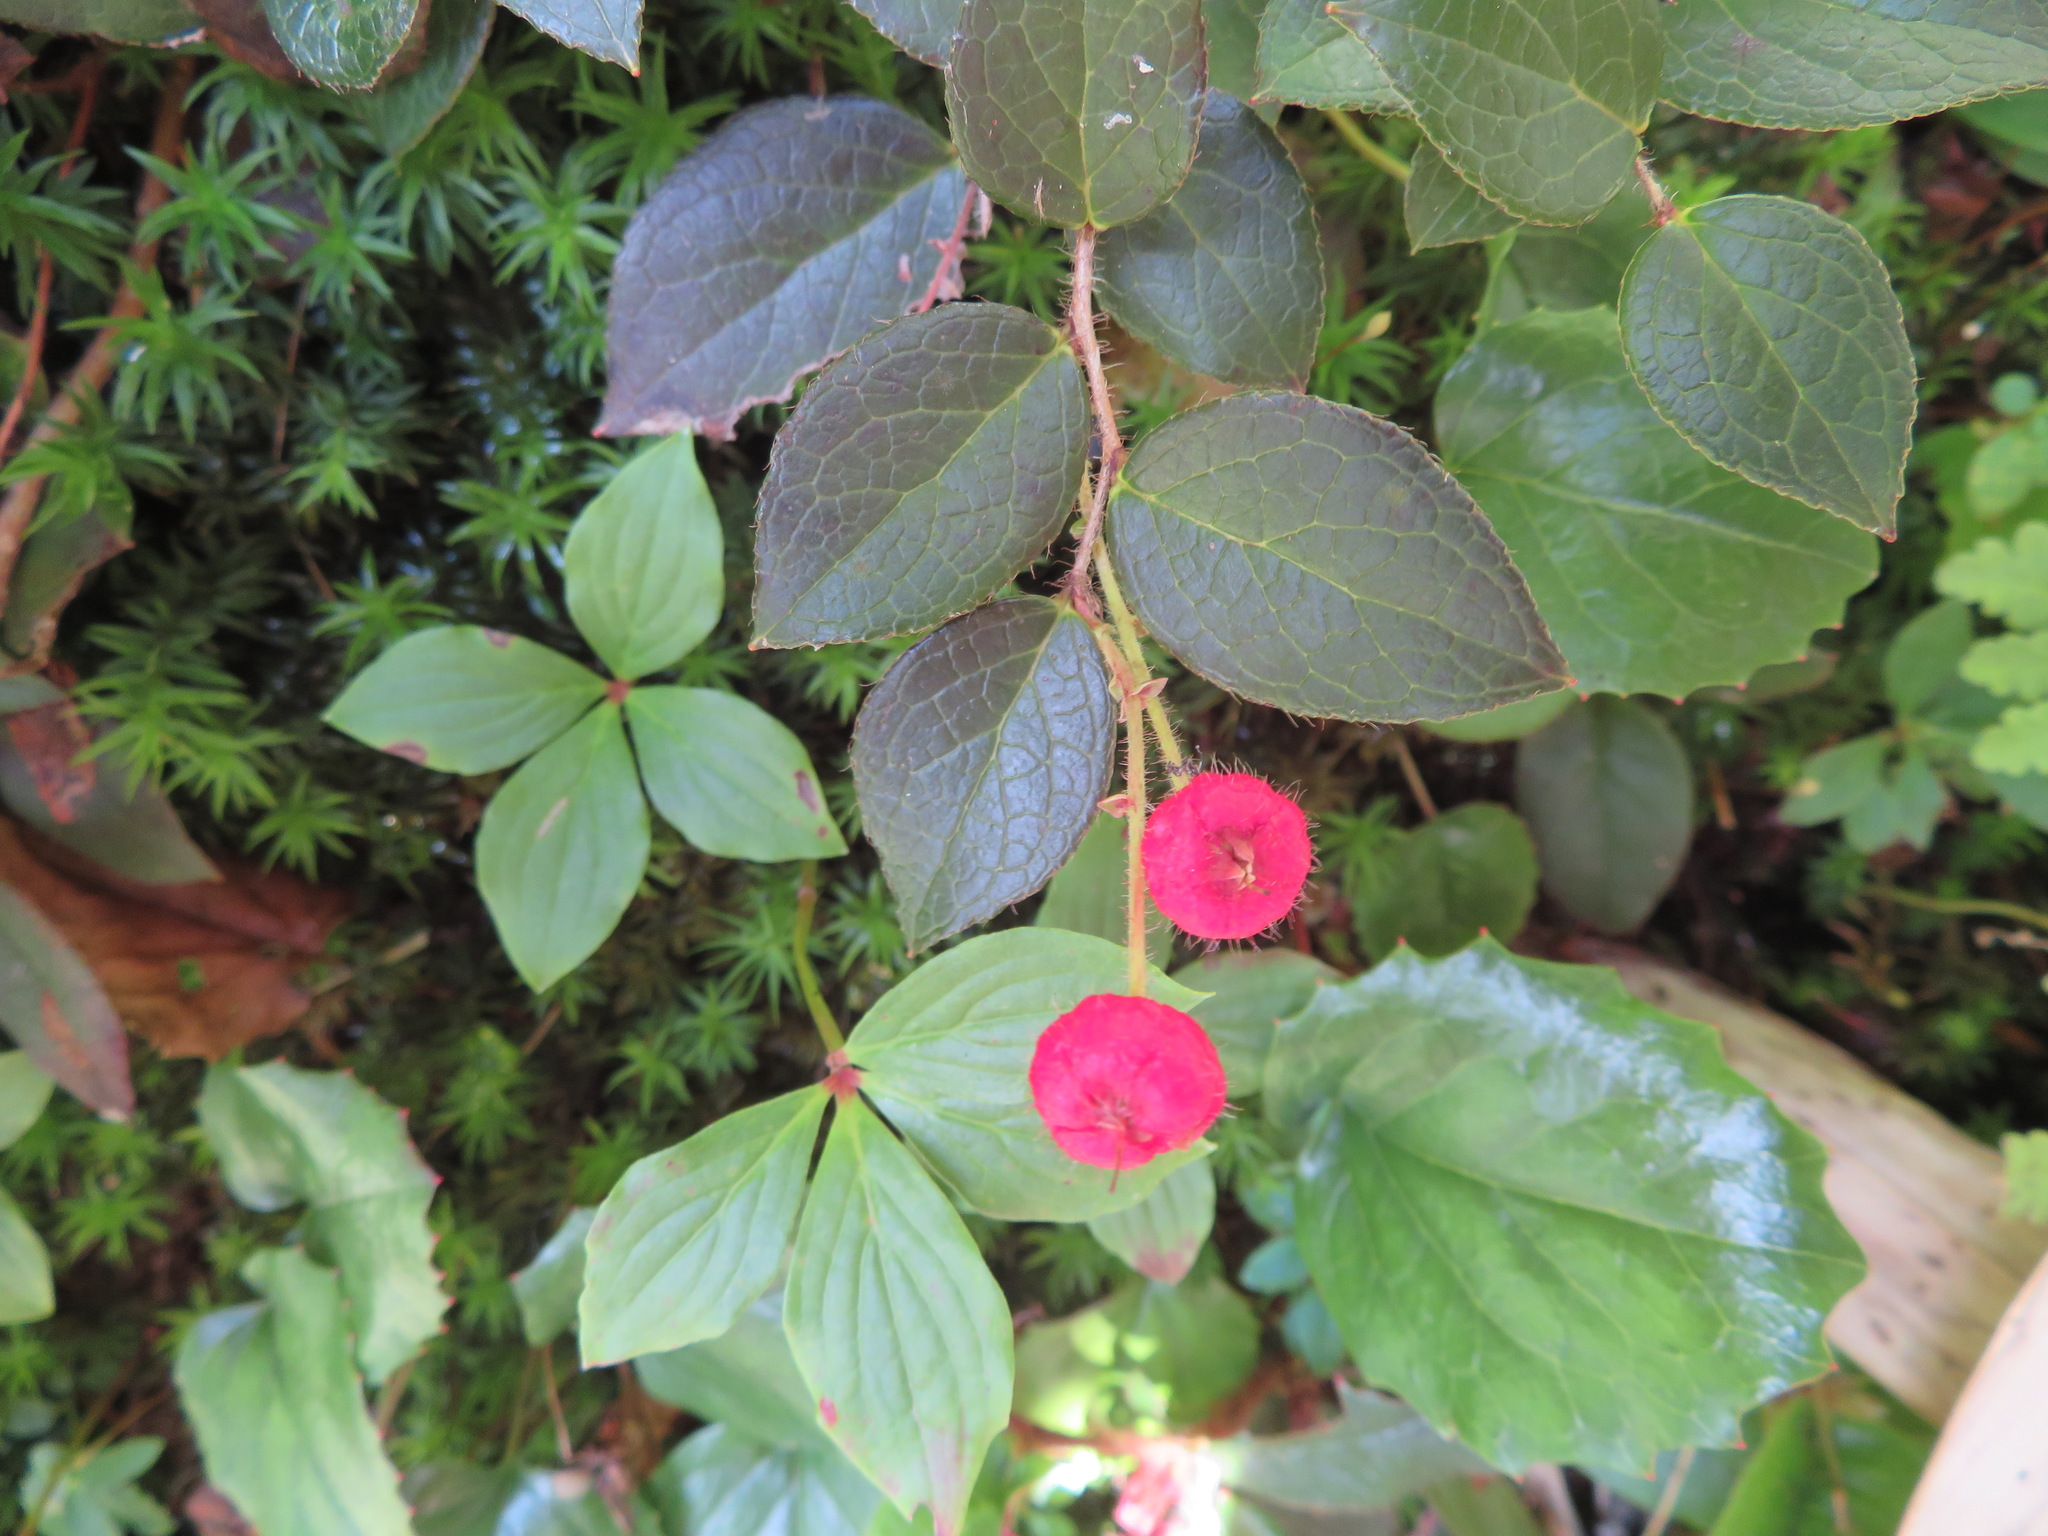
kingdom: Plantae
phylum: Tracheophyta
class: Magnoliopsida
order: Ericales
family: Ericaceae
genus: Gaultheria
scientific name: Gaultheria adenothrix
